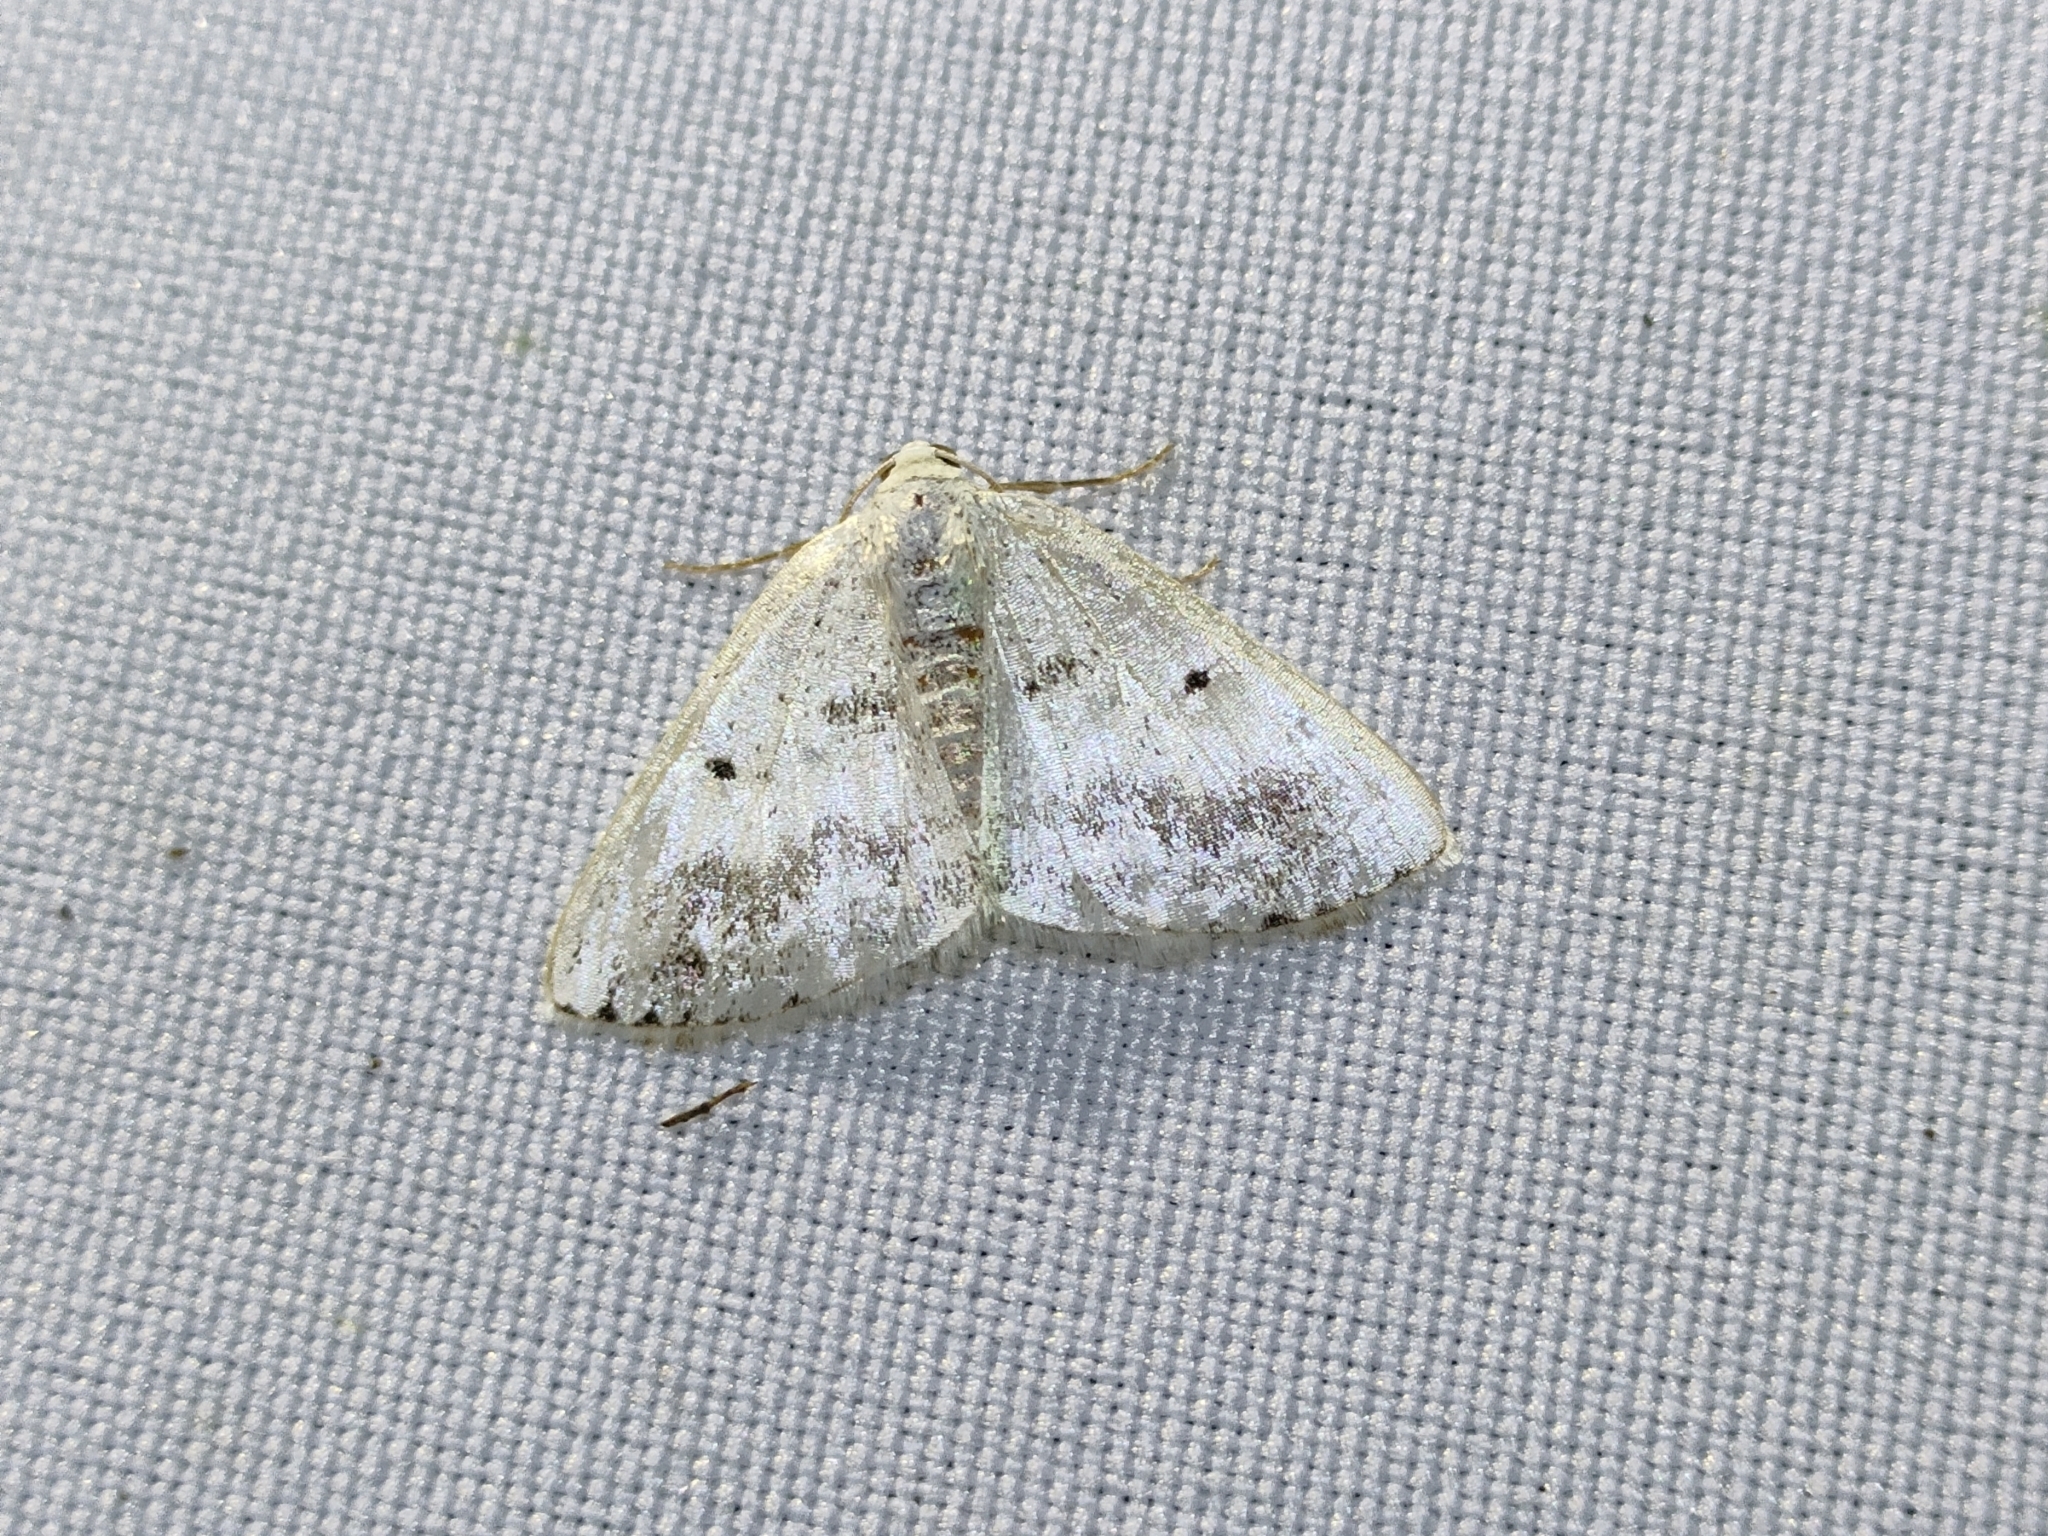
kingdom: Animalia
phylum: Arthropoda
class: Insecta
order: Lepidoptera
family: Geometridae
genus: Lomographa
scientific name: Lomographa temerata
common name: Clouded silver
